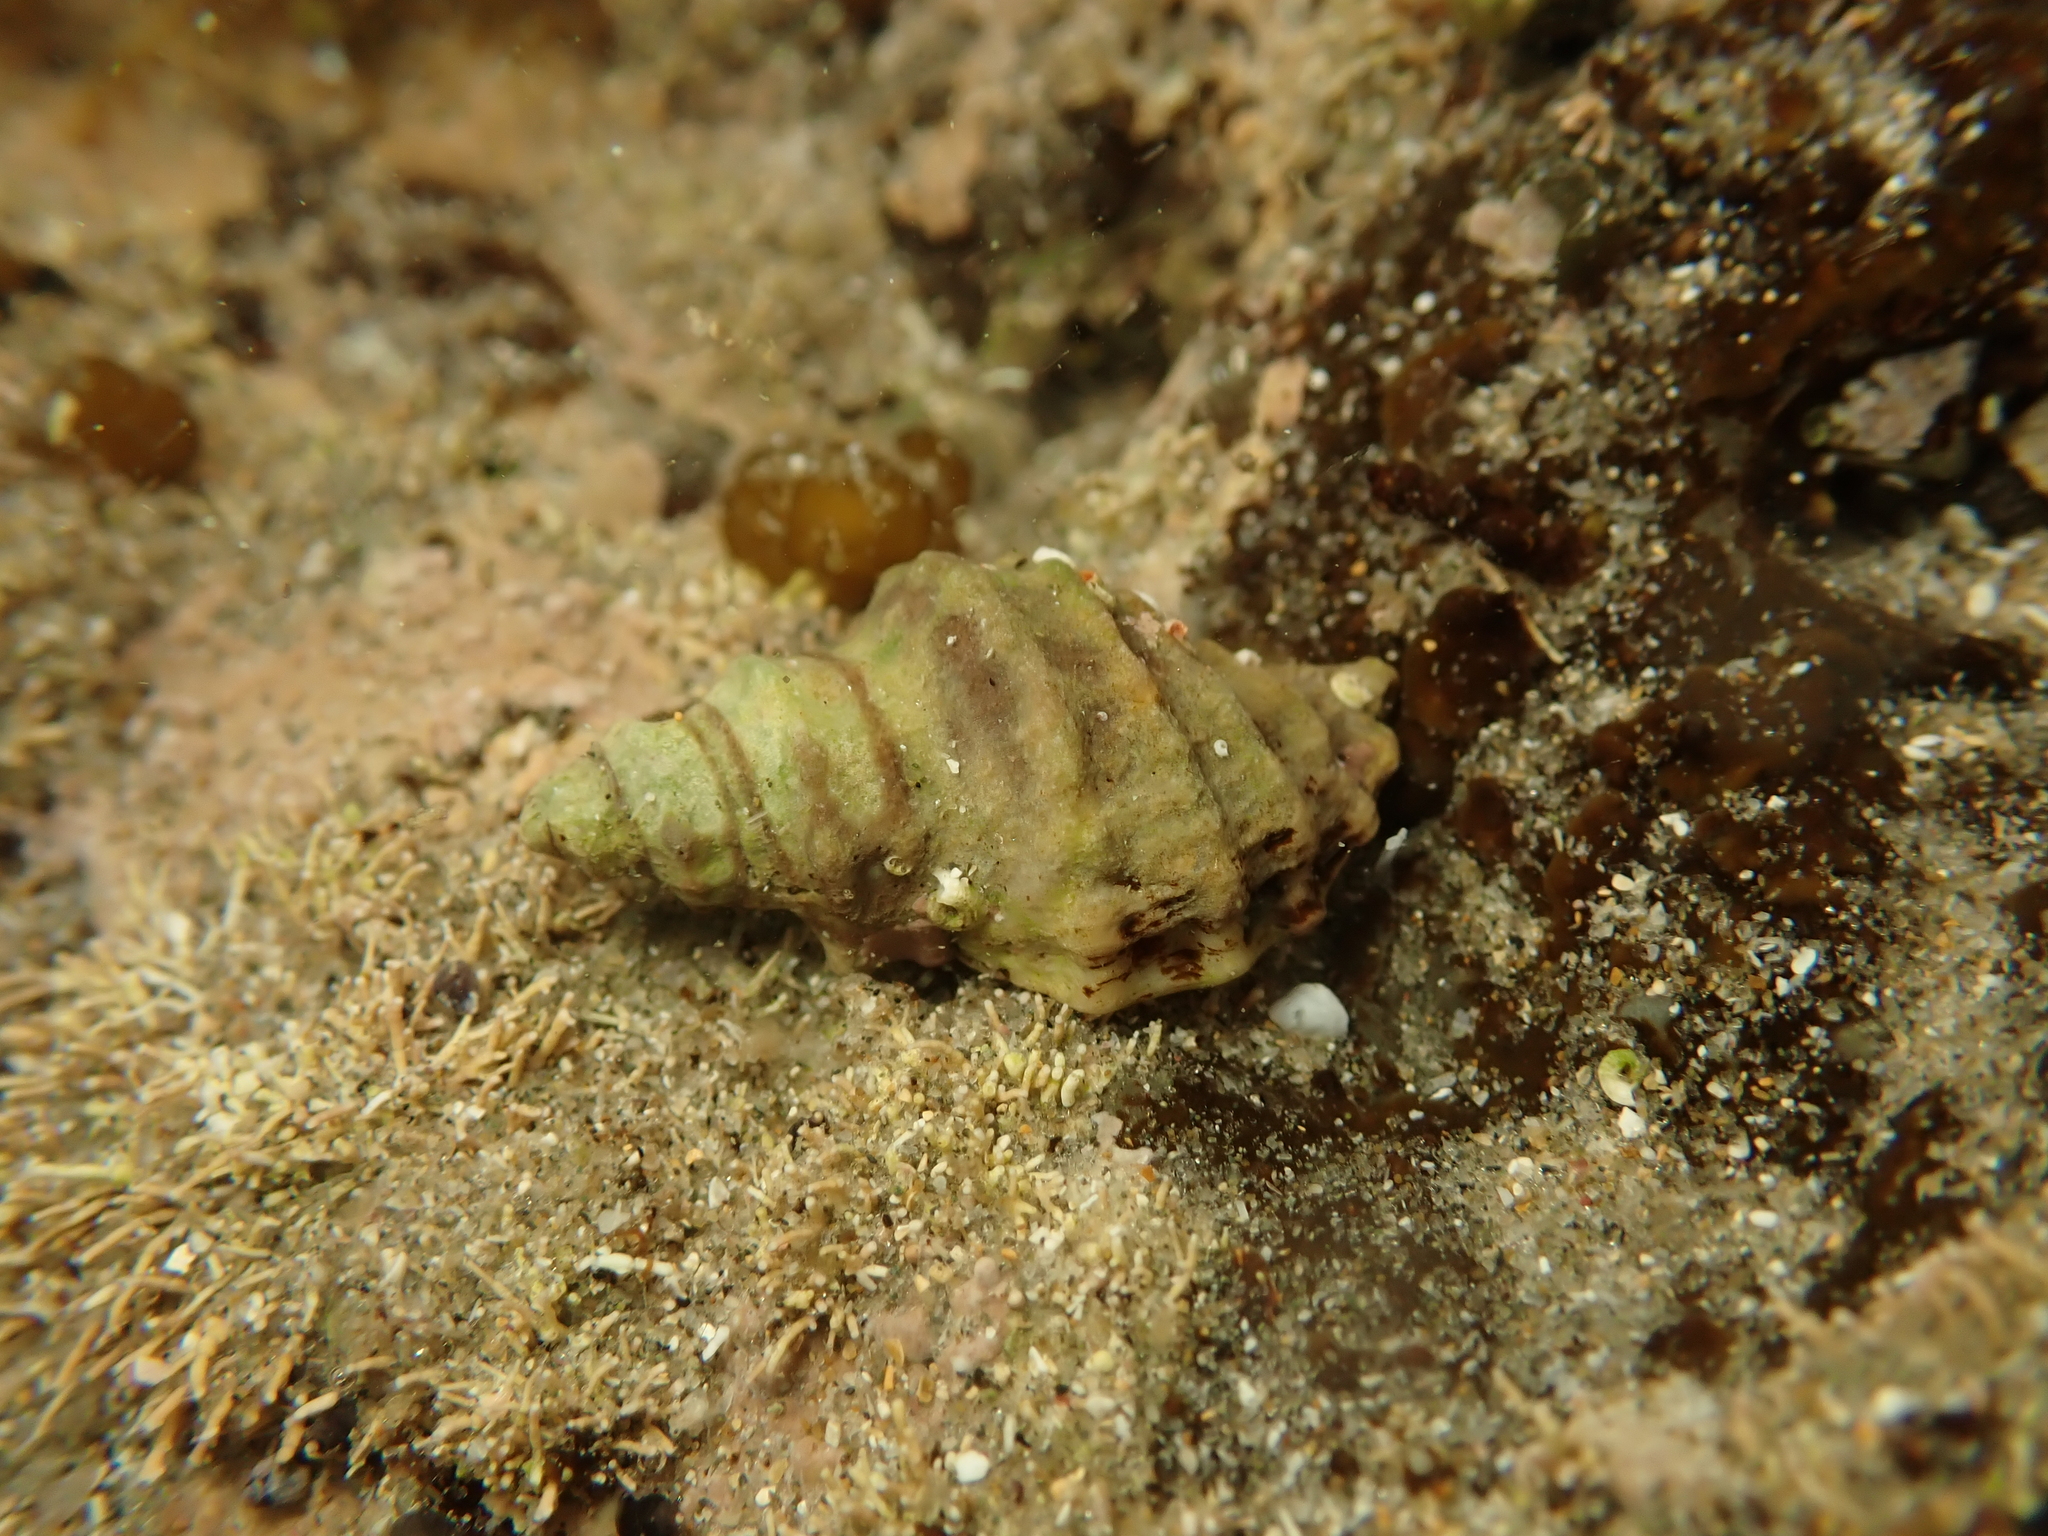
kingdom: Animalia
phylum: Mollusca
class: Gastropoda
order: Neogastropoda
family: Muricidae
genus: Paratrophon
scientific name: Paratrophon quoyi
